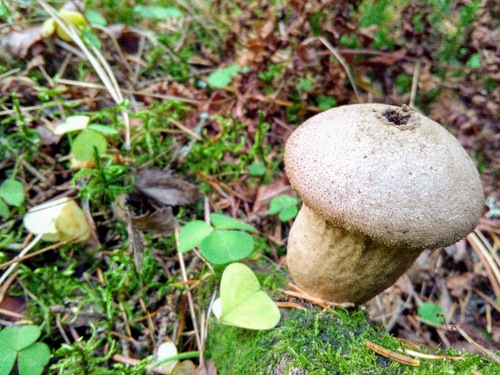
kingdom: Fungi
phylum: Basidiomycota
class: Agaricomycetes
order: Agaricales
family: Lycoperdaceae
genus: Lycoperdon
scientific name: Lycoperdon perlatum
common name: Common puffball
